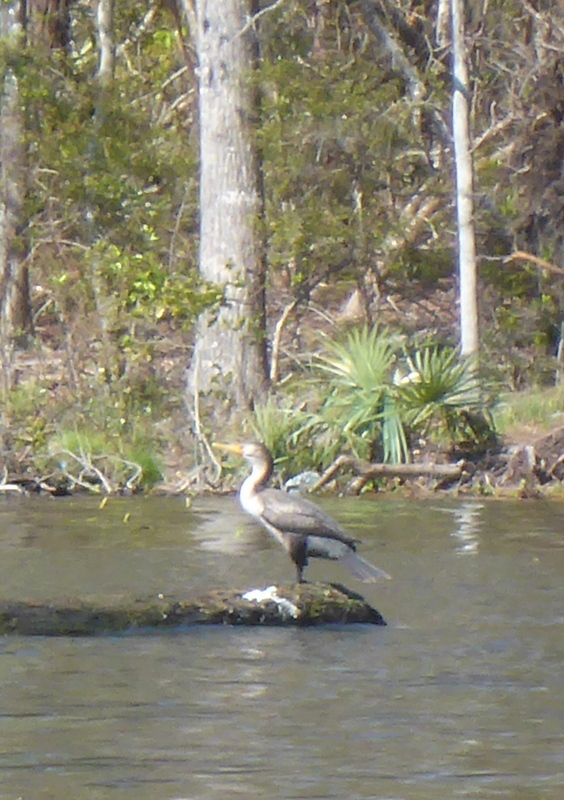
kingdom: Animalia
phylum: Chordata
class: Aves
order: Suliformes
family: Phalacrocoracidae
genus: Phalacrocorax
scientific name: Phalacrocorax auritus
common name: Double-crested cormorant
